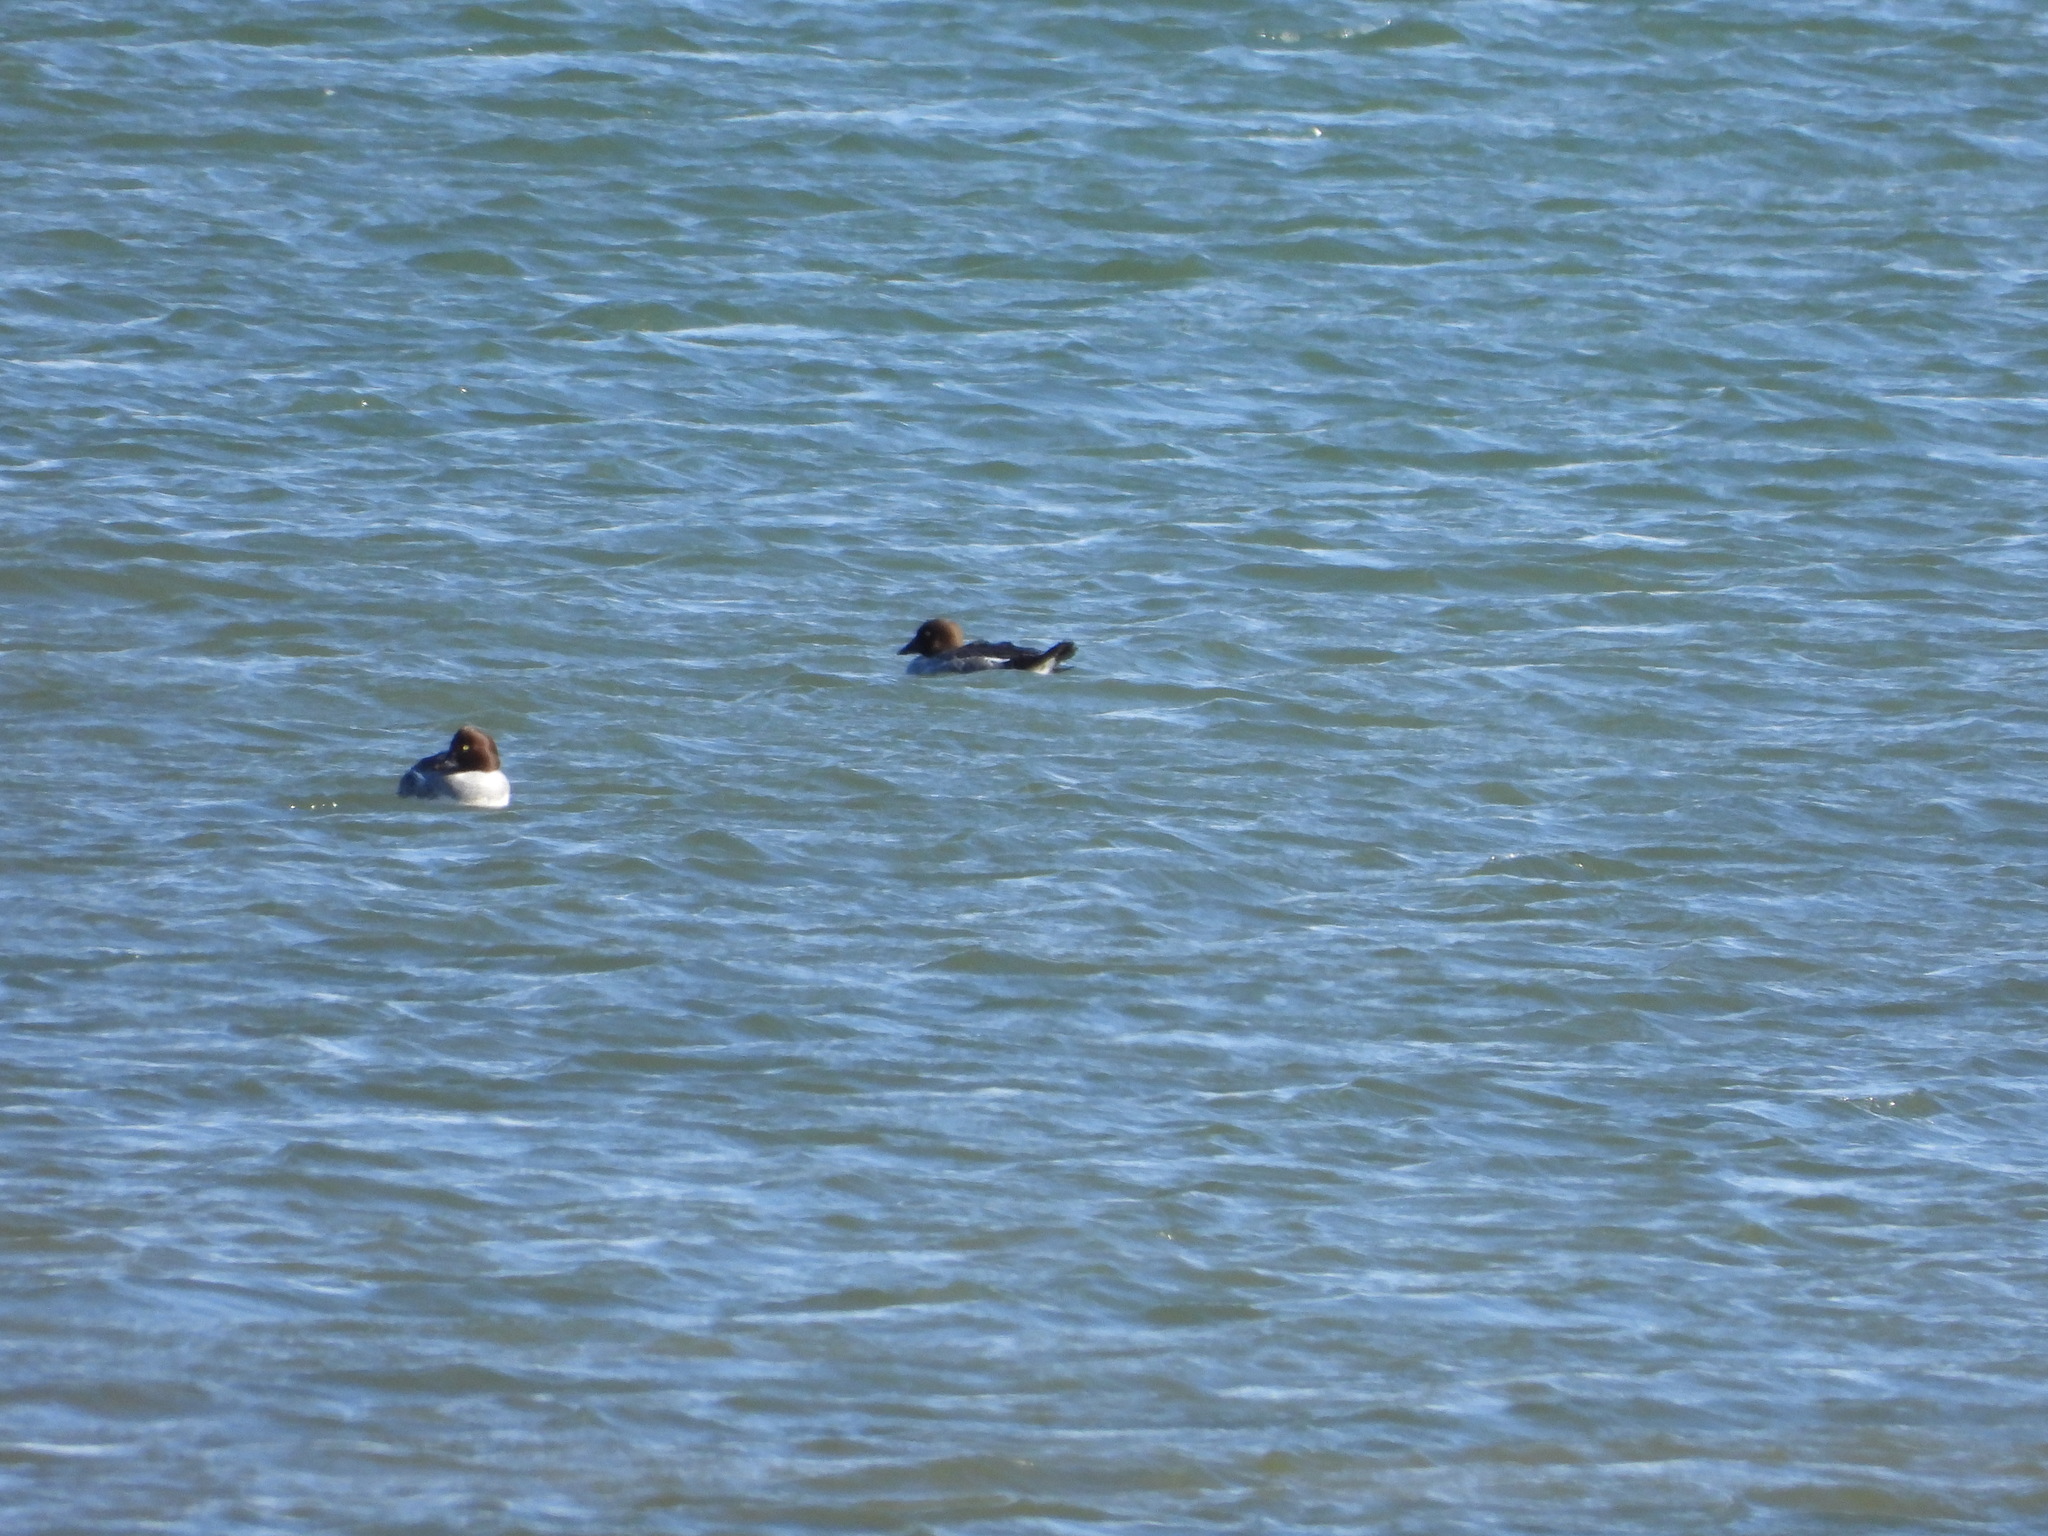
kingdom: Animalia
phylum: Chordata
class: Aves
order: Anseriformes
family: Anatidae
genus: Bucephala
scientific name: Bucephala clangula
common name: Common goldeneye
